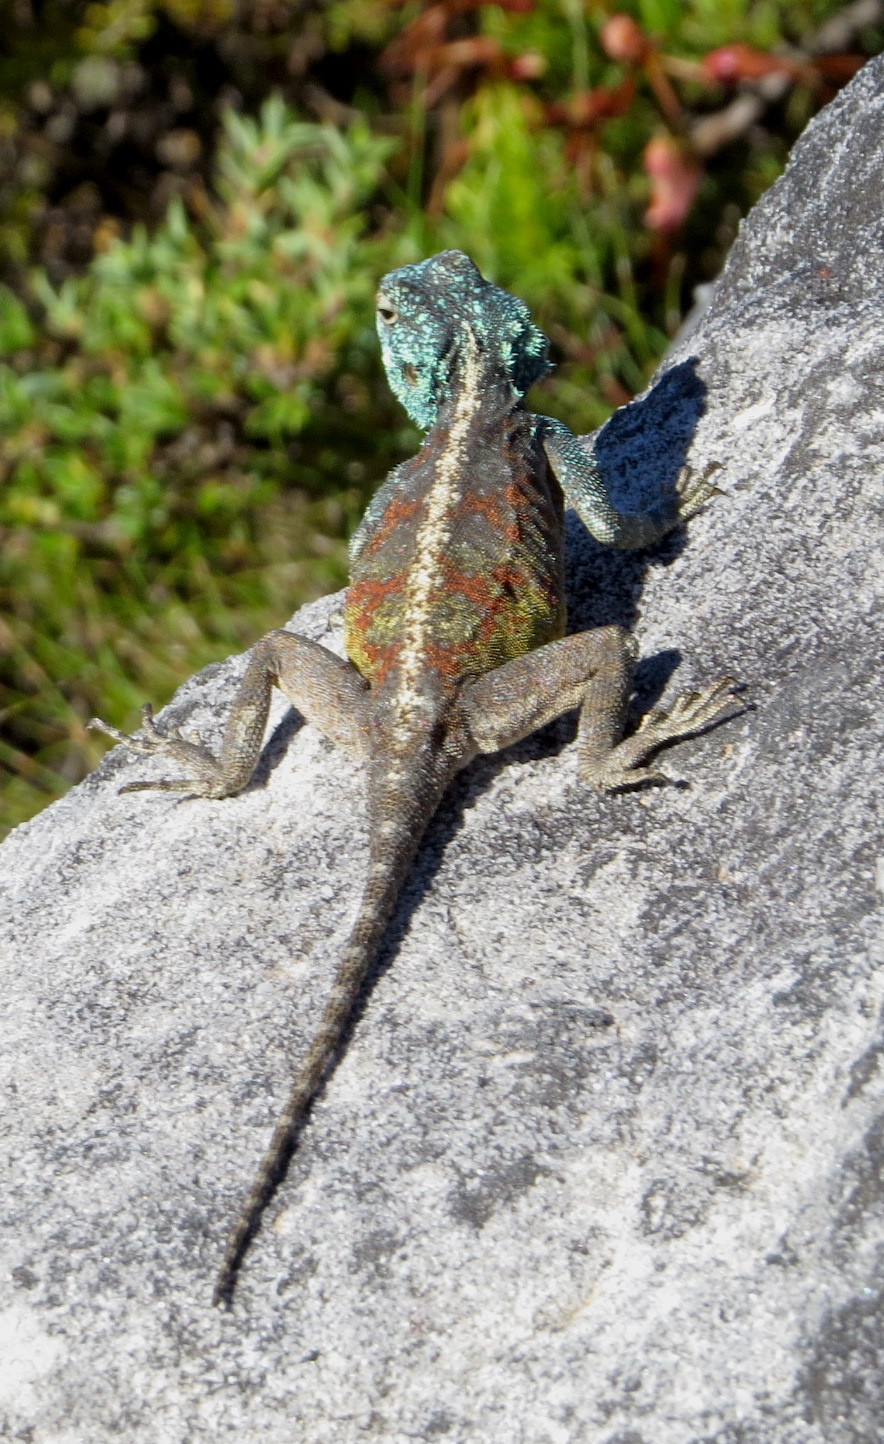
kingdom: Animalia
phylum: Chordata
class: Squamata
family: Agamidae
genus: Agama
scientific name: Agama atra
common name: Southern african rock agama
